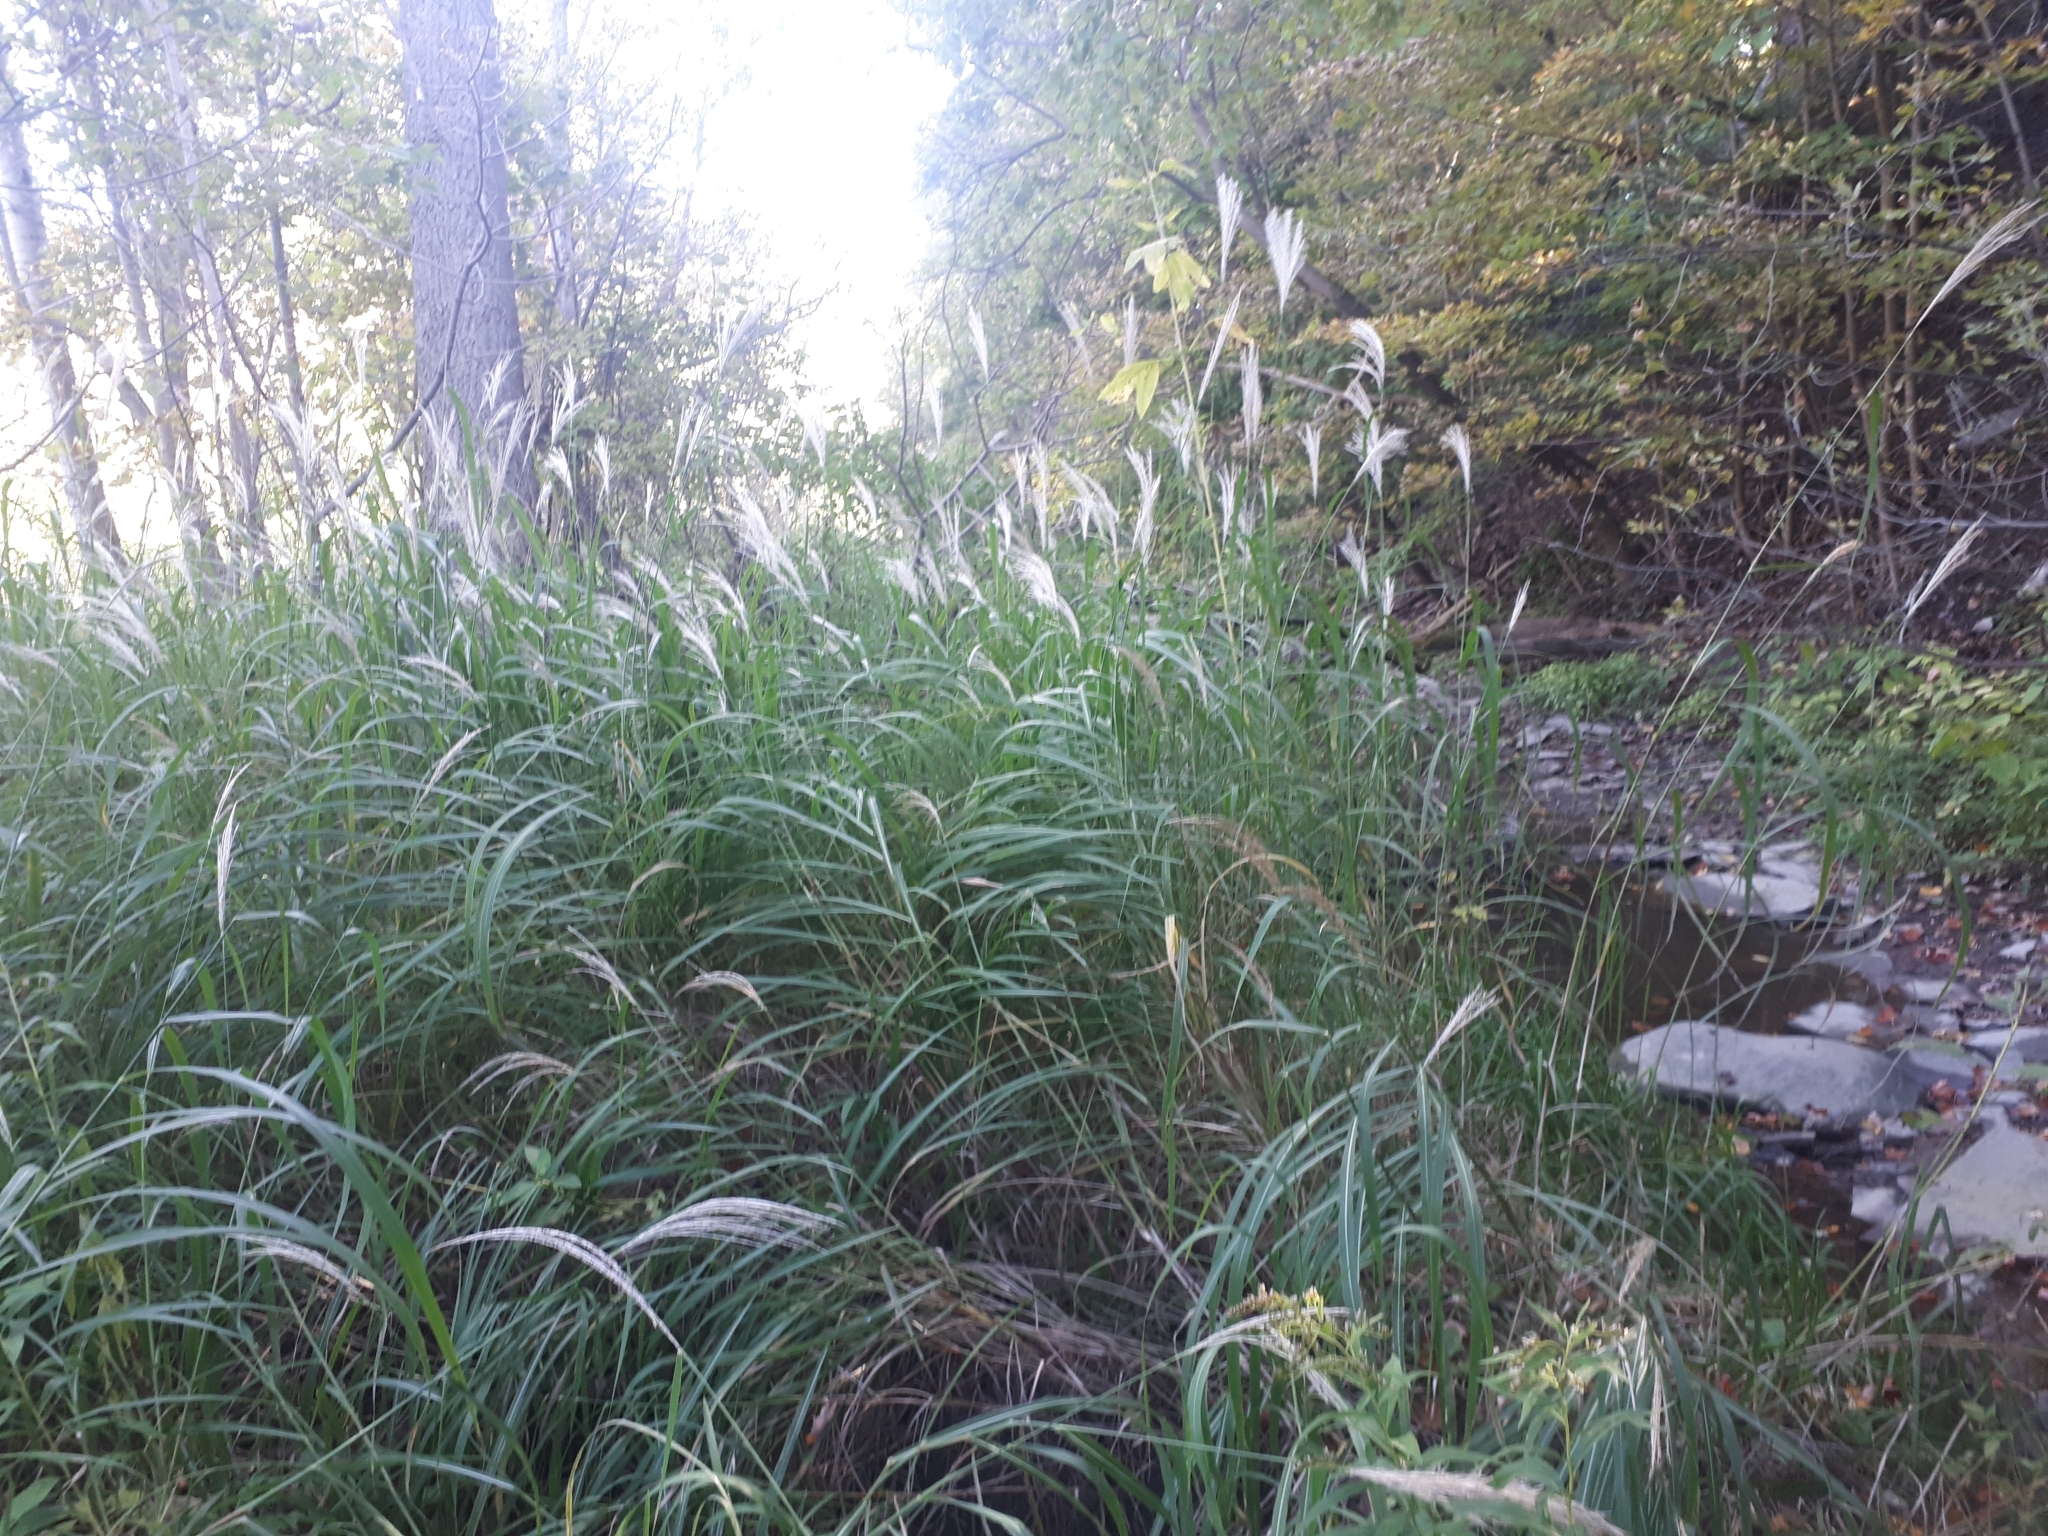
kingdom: Plantae
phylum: Tracheophyta
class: Liliopsida
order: Poales
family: Poaceae
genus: Miscanthus
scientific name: Miscanthus sinensis
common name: Chinese silvergrass
